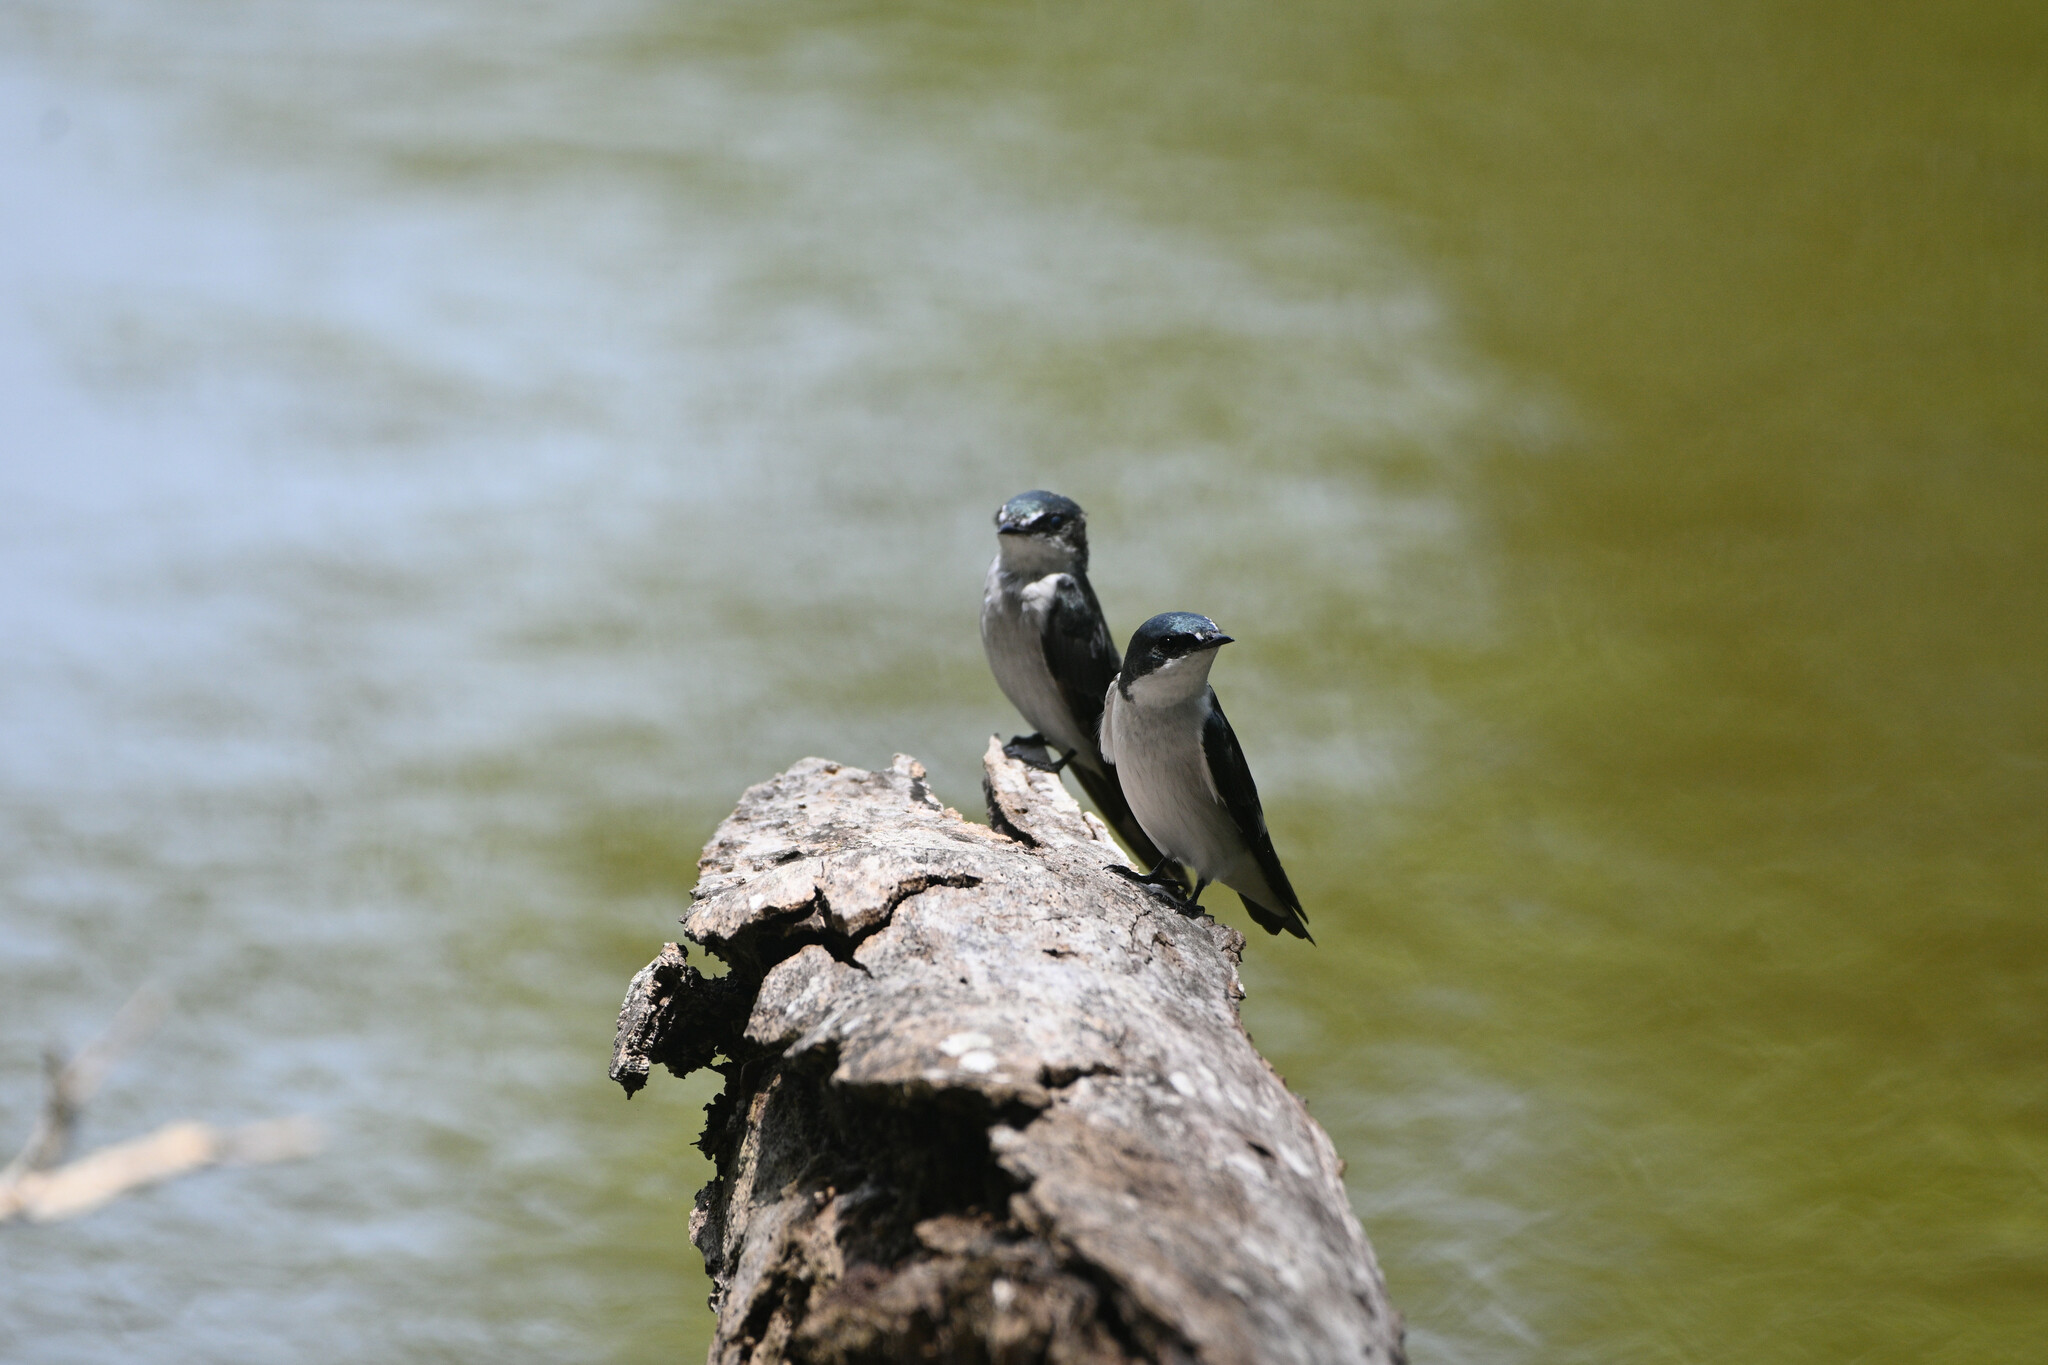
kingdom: Animalia
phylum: Chordata
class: Aves
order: Passeriformes
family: Hirundinidae
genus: Tachycineta
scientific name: Tachycineta albilinea
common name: Mangrove swallow
